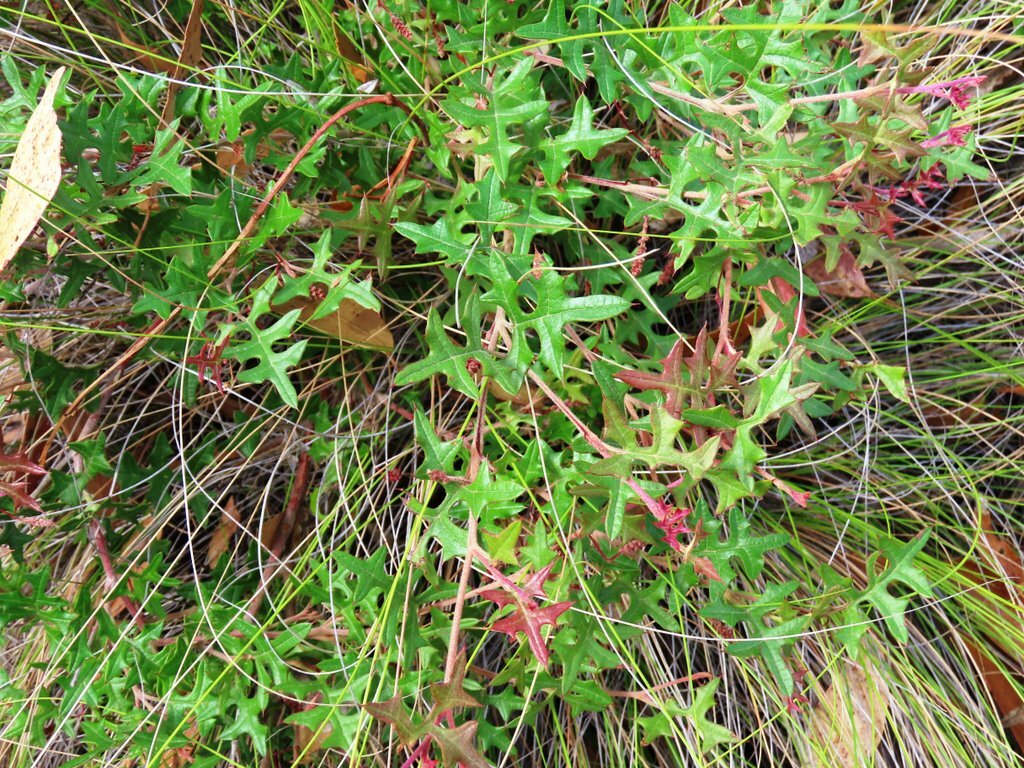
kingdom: Plantae
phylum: Tracheophyta
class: Magnoliopsida
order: Proteales
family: Proteaceae
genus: Grevillea
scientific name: Grevillea floripendula
